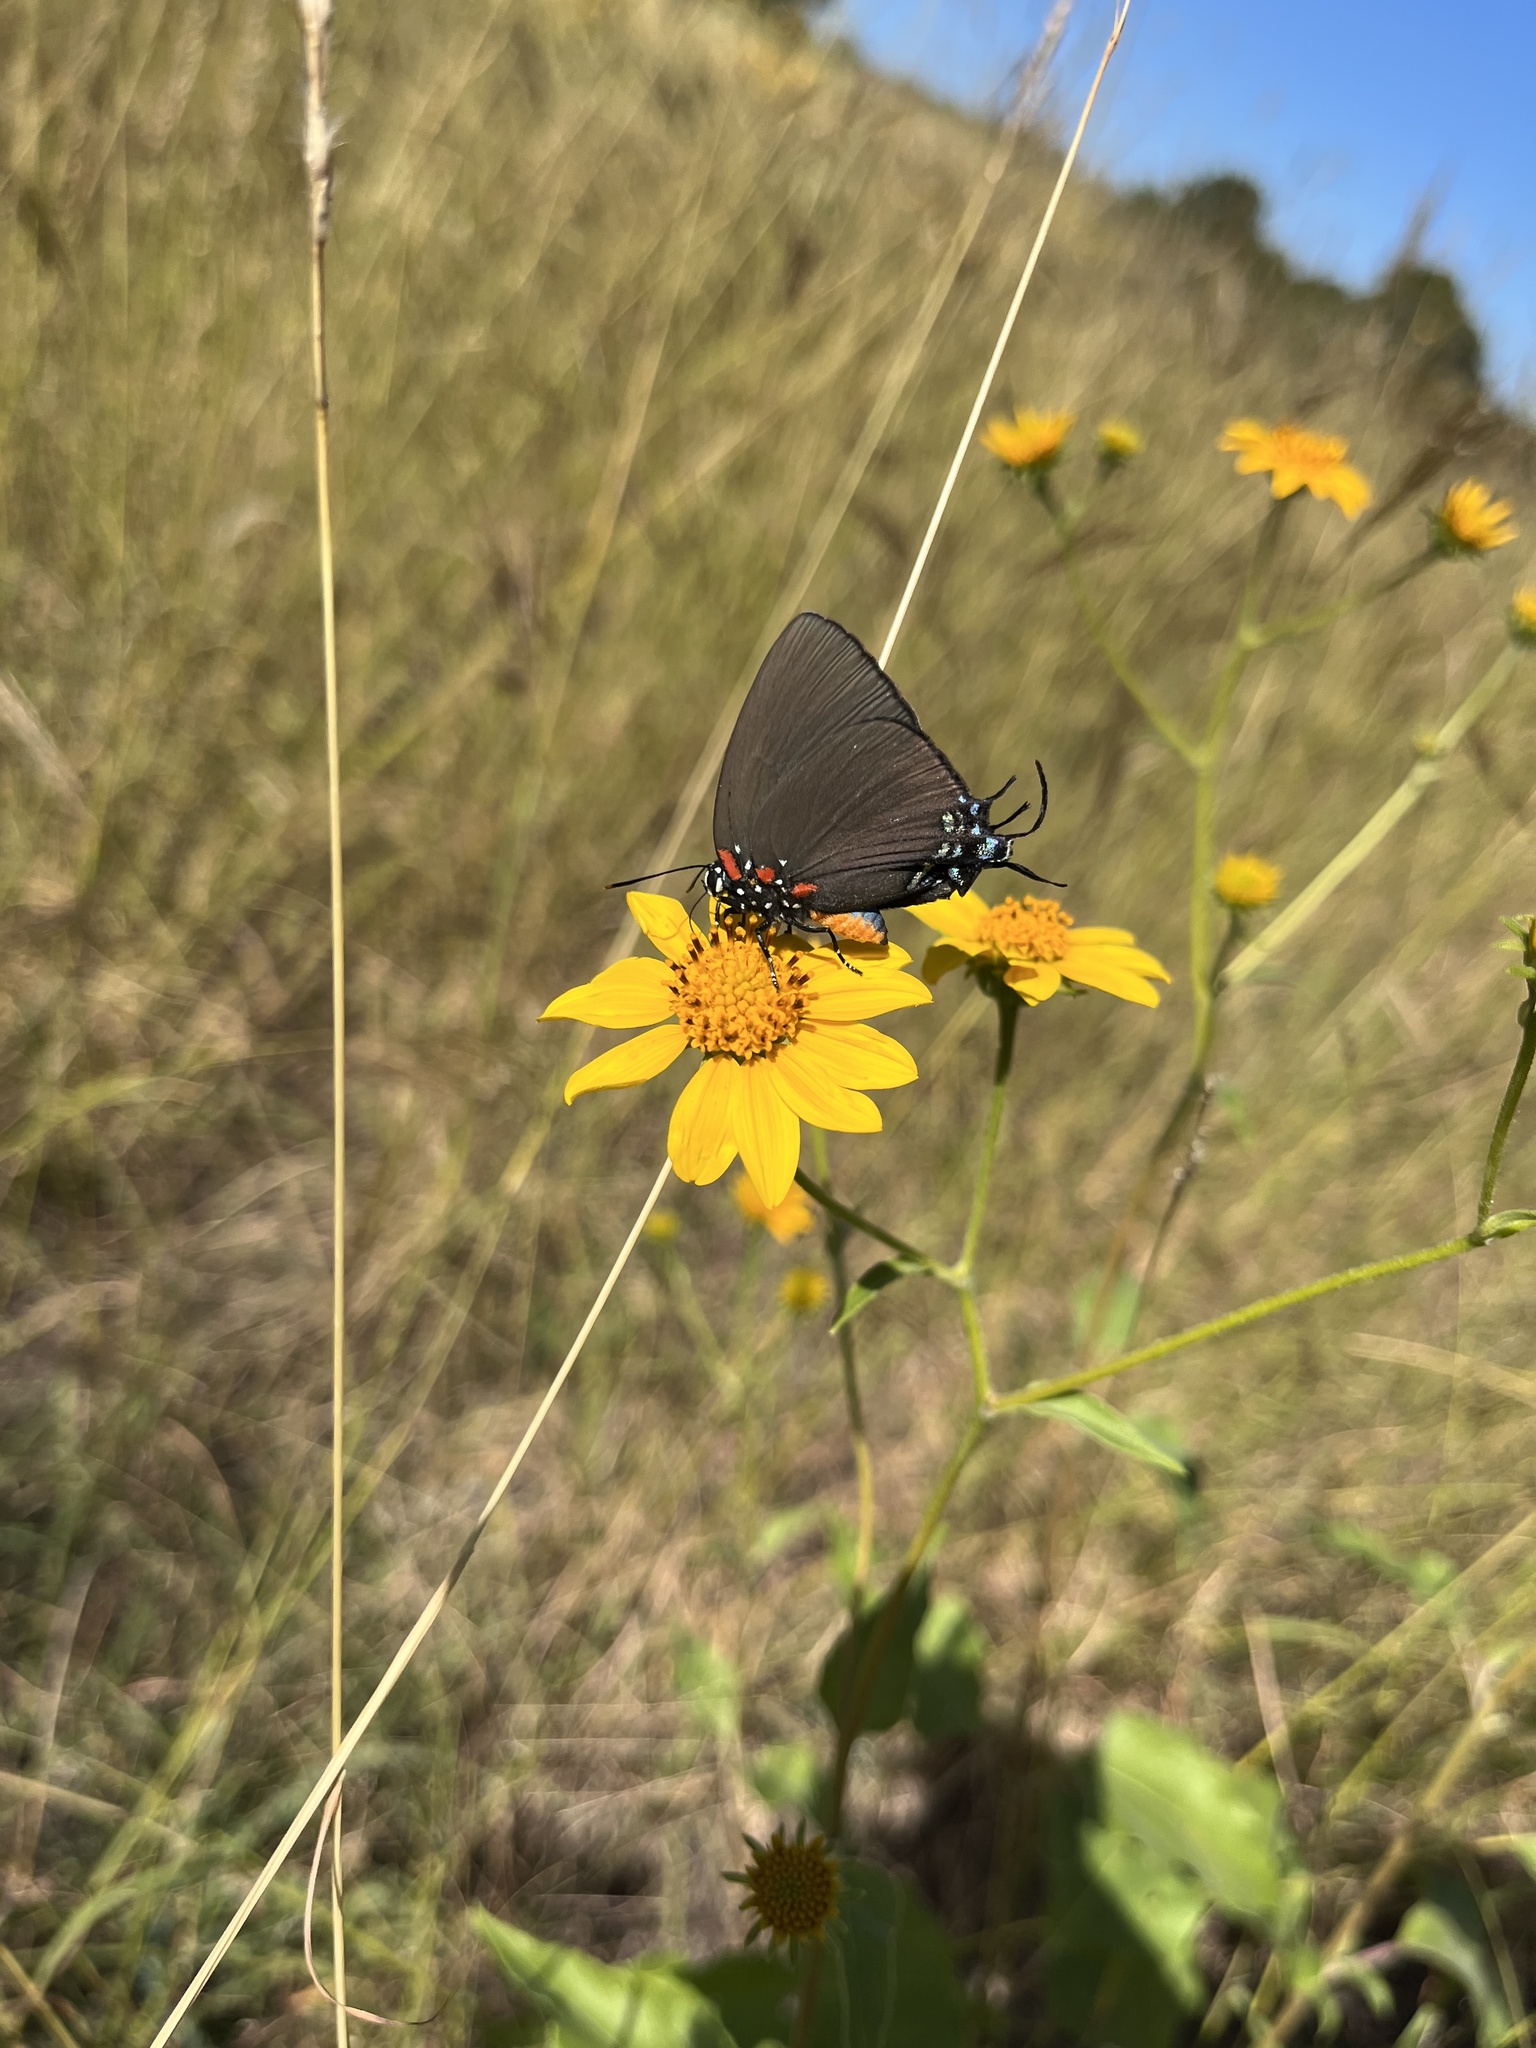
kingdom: Animalia
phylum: Arthropoda
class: Insecta
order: Lepidoptera
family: Lycaenidae
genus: Atlides
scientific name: Atlides halesus
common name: Great purple hairstreak
